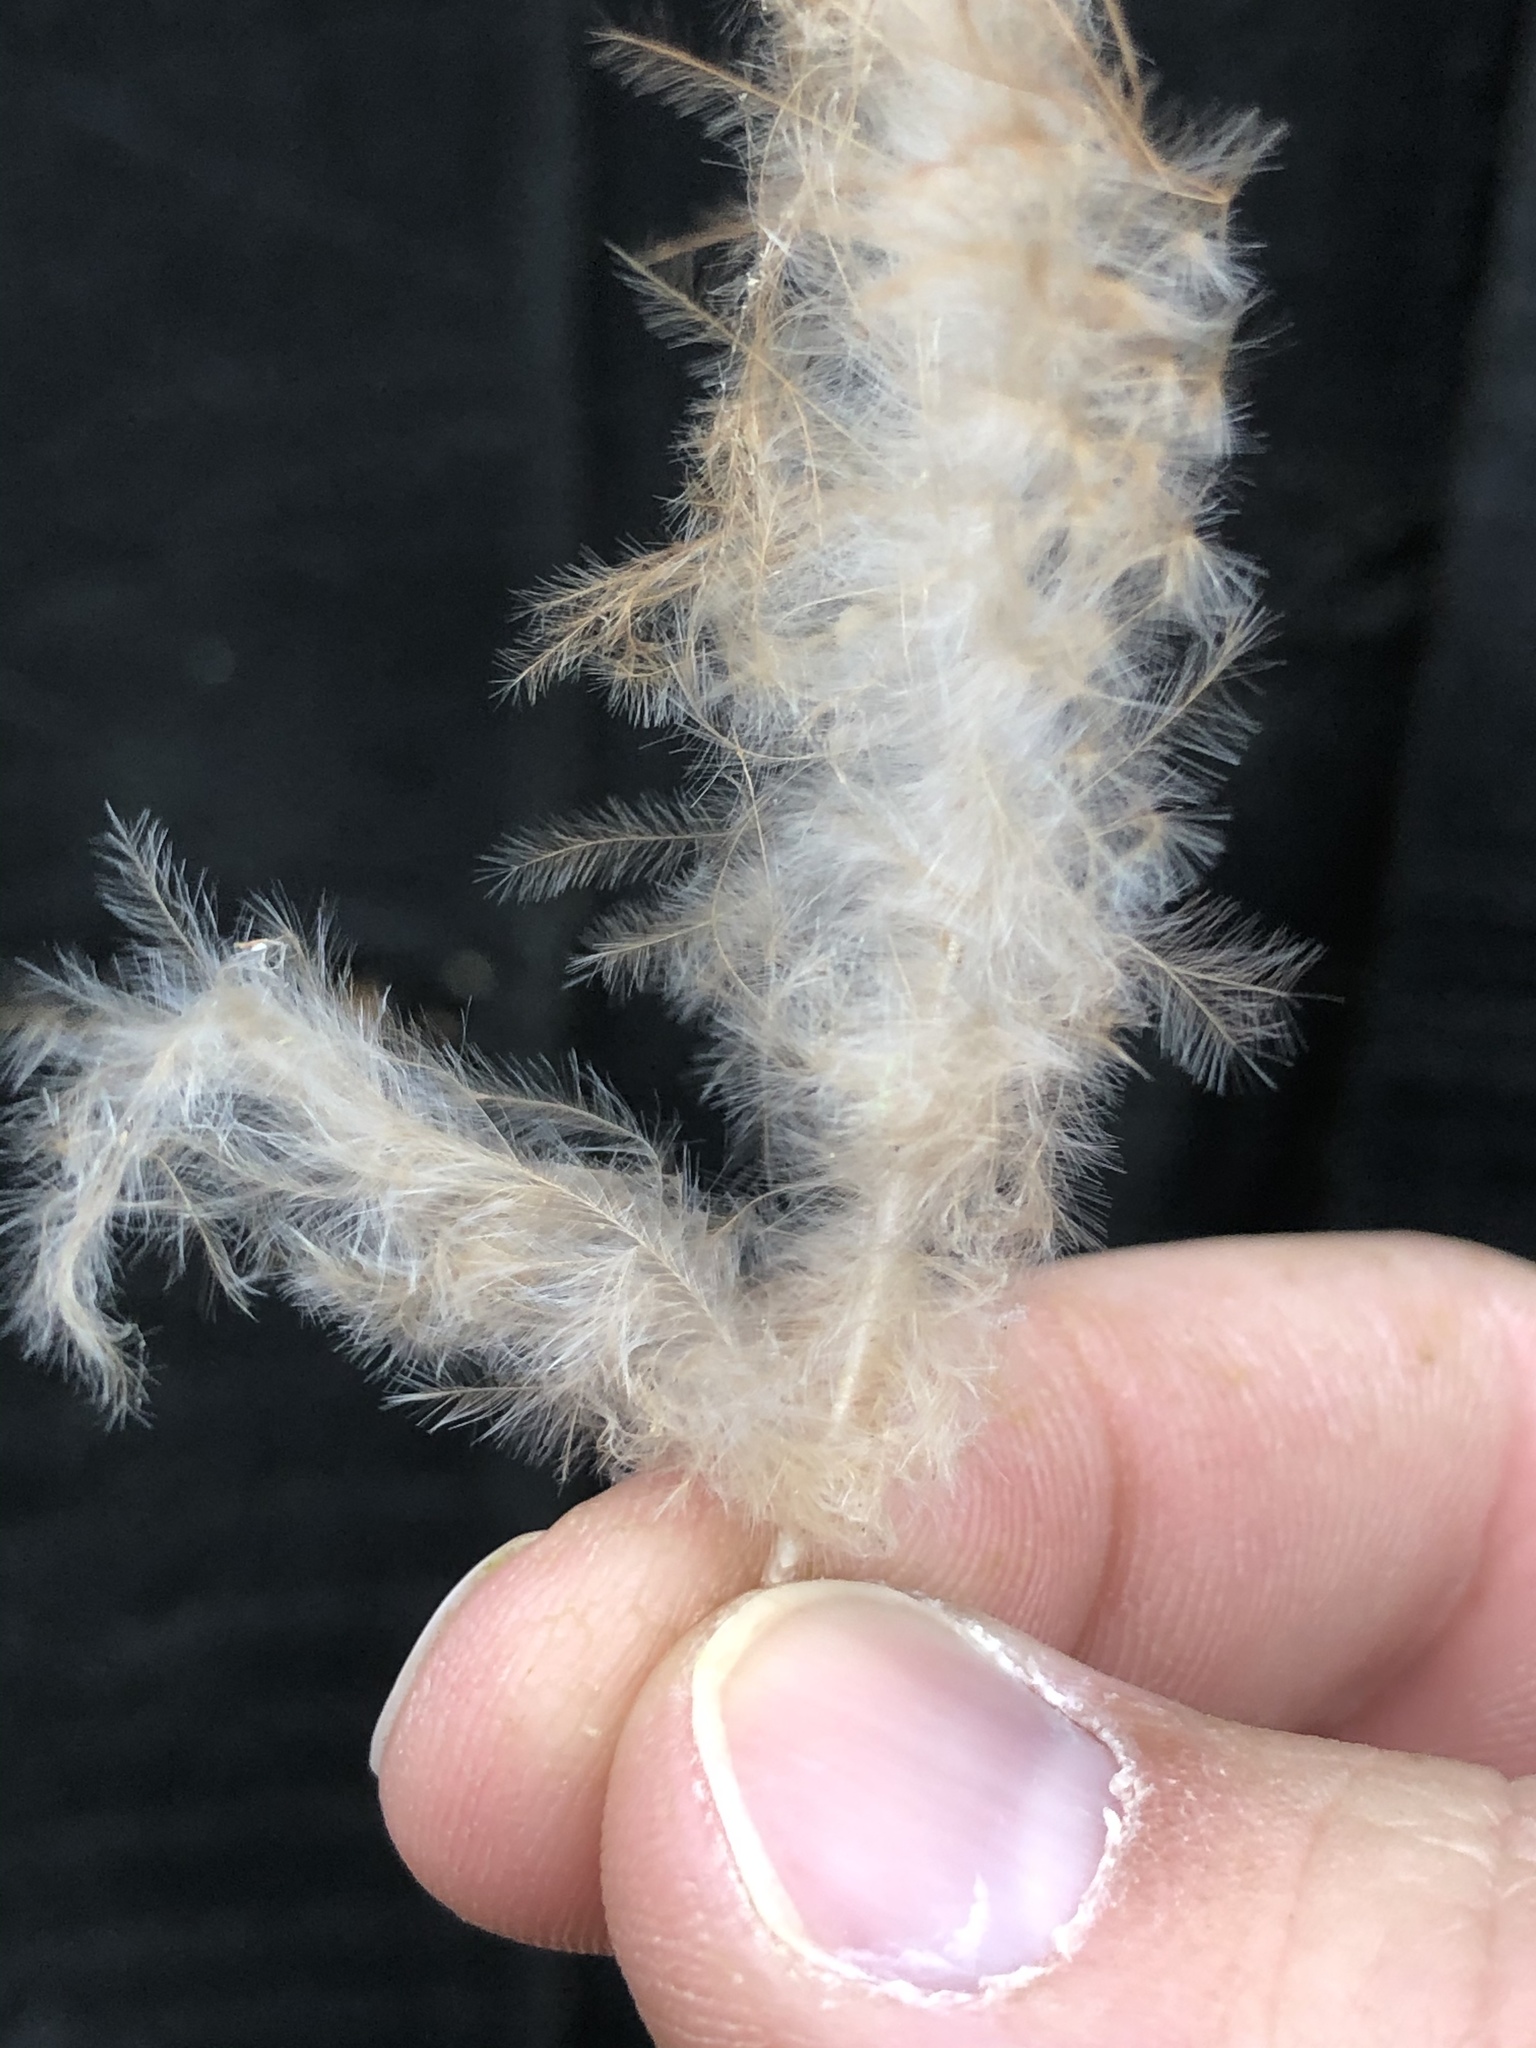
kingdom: Animalia
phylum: Chordata
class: Aves
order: Accipitriformes
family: Accipitridae
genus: Circus
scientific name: Circus approximans
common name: Swamp harrier
